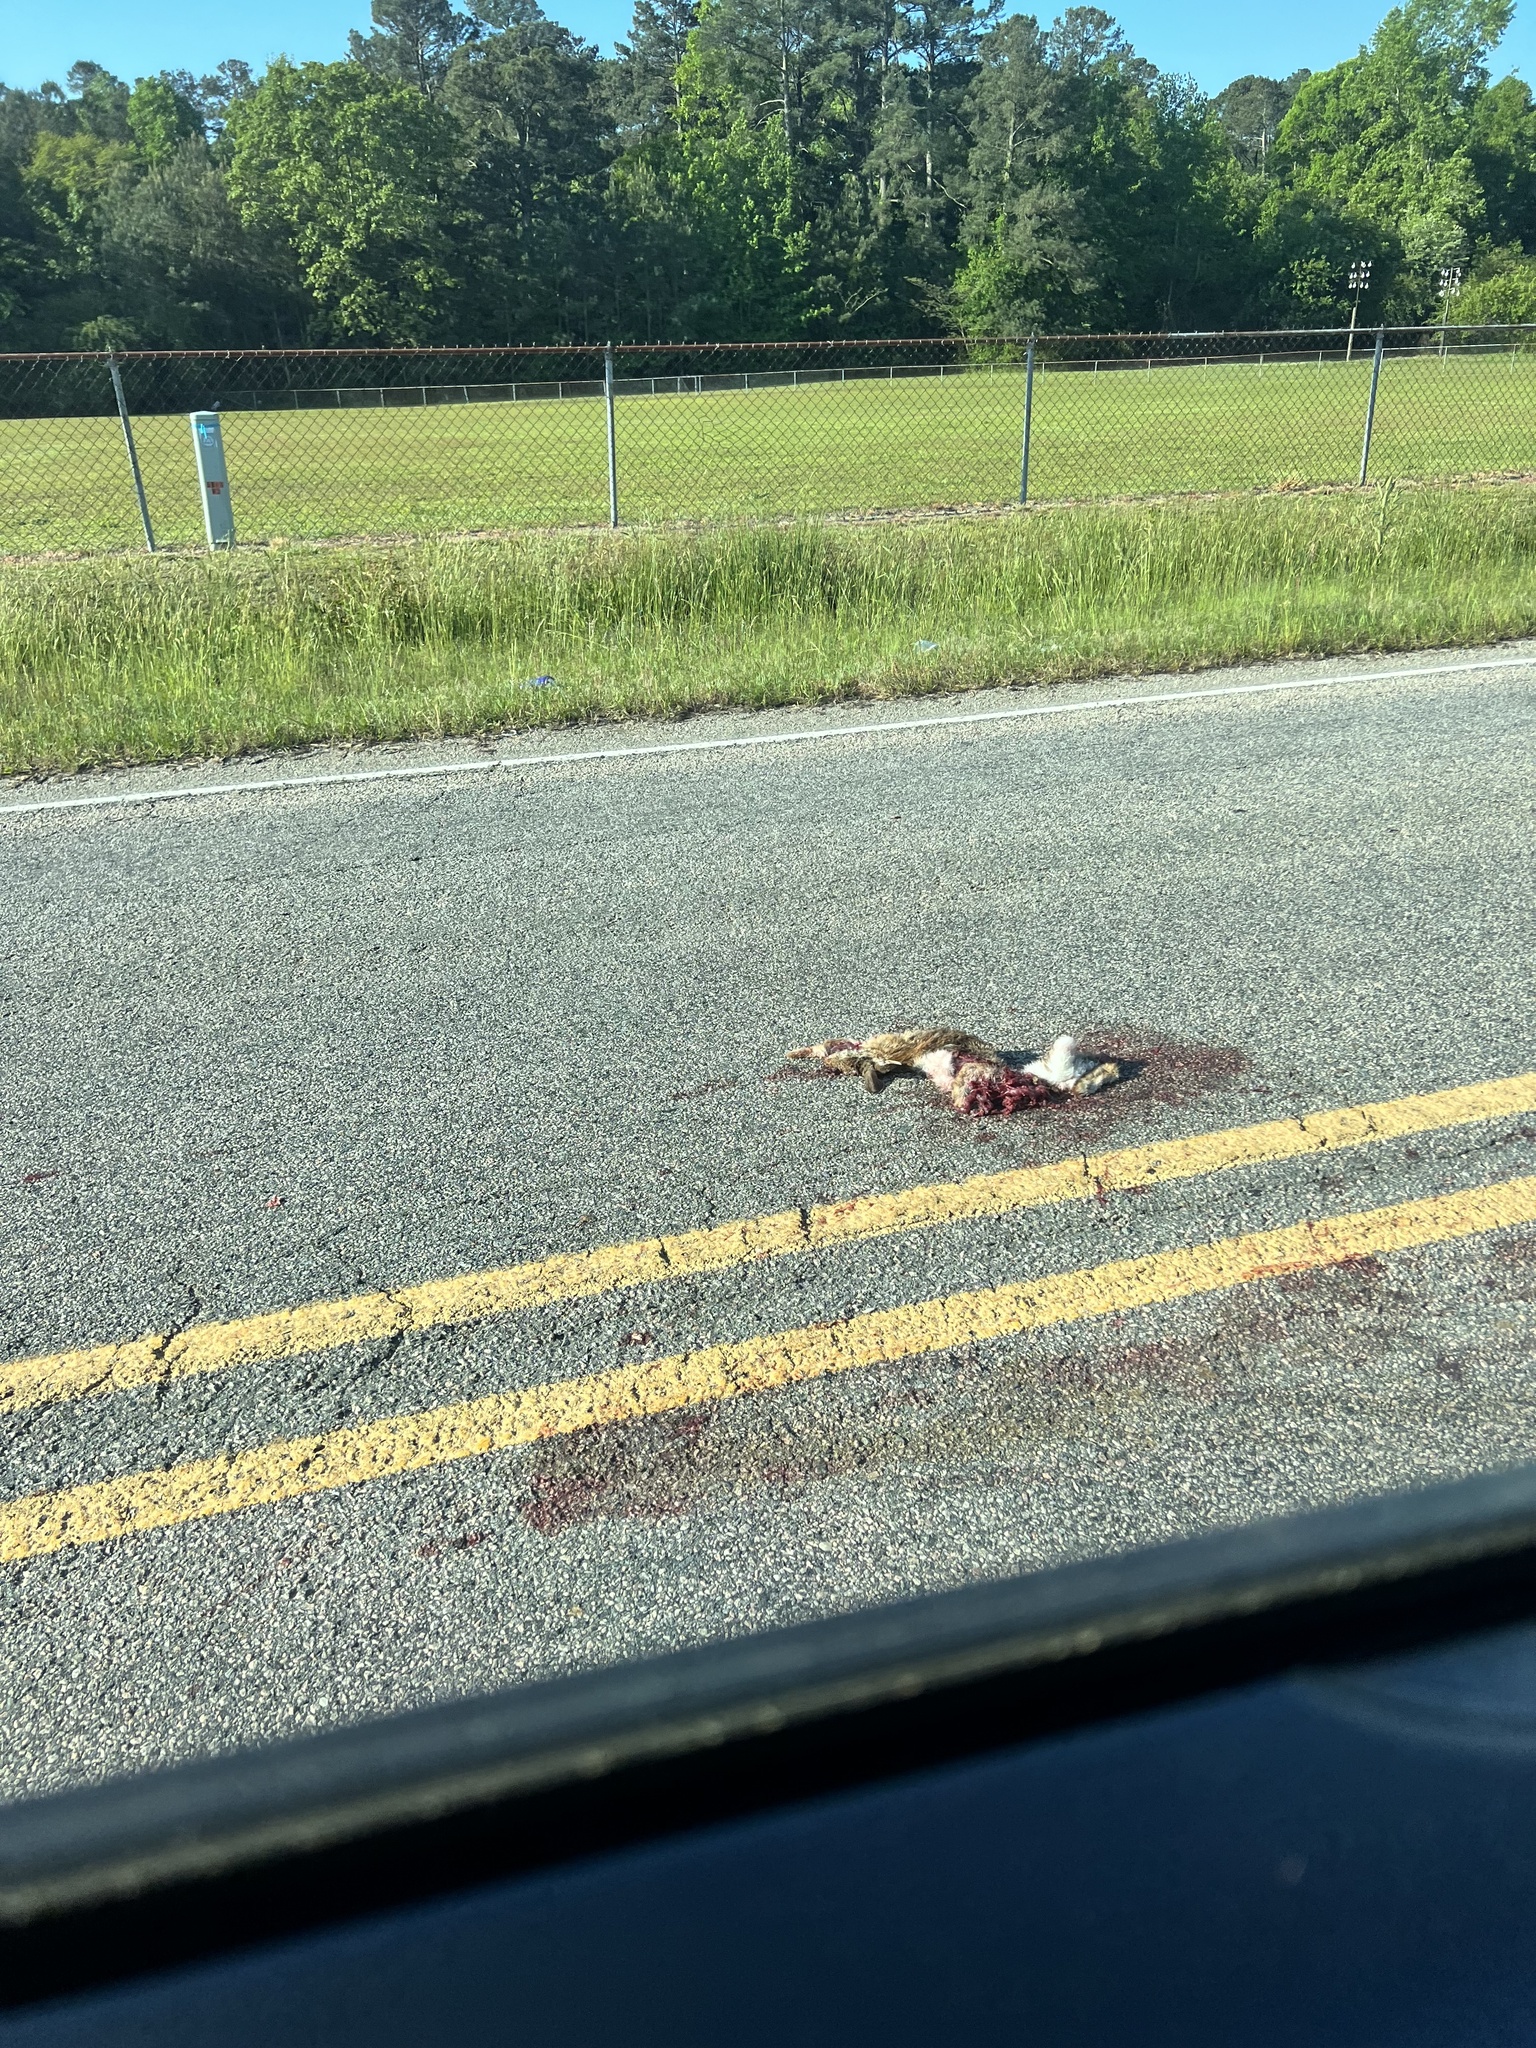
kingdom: Animalia
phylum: Chordata
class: Mammalia
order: Lagomorpha
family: Leporidae
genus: Sylvilagus
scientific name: Sylvilagus floridanus
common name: Eastern cottontail
